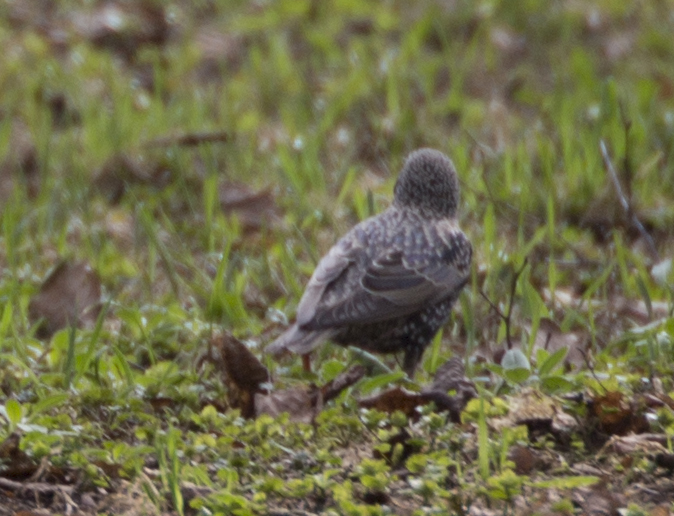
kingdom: Animalia
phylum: Chordata
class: Aves
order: Passeriformes
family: Sturnidae
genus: Sturnus
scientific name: Sturnus vulgaris
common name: Common starling
